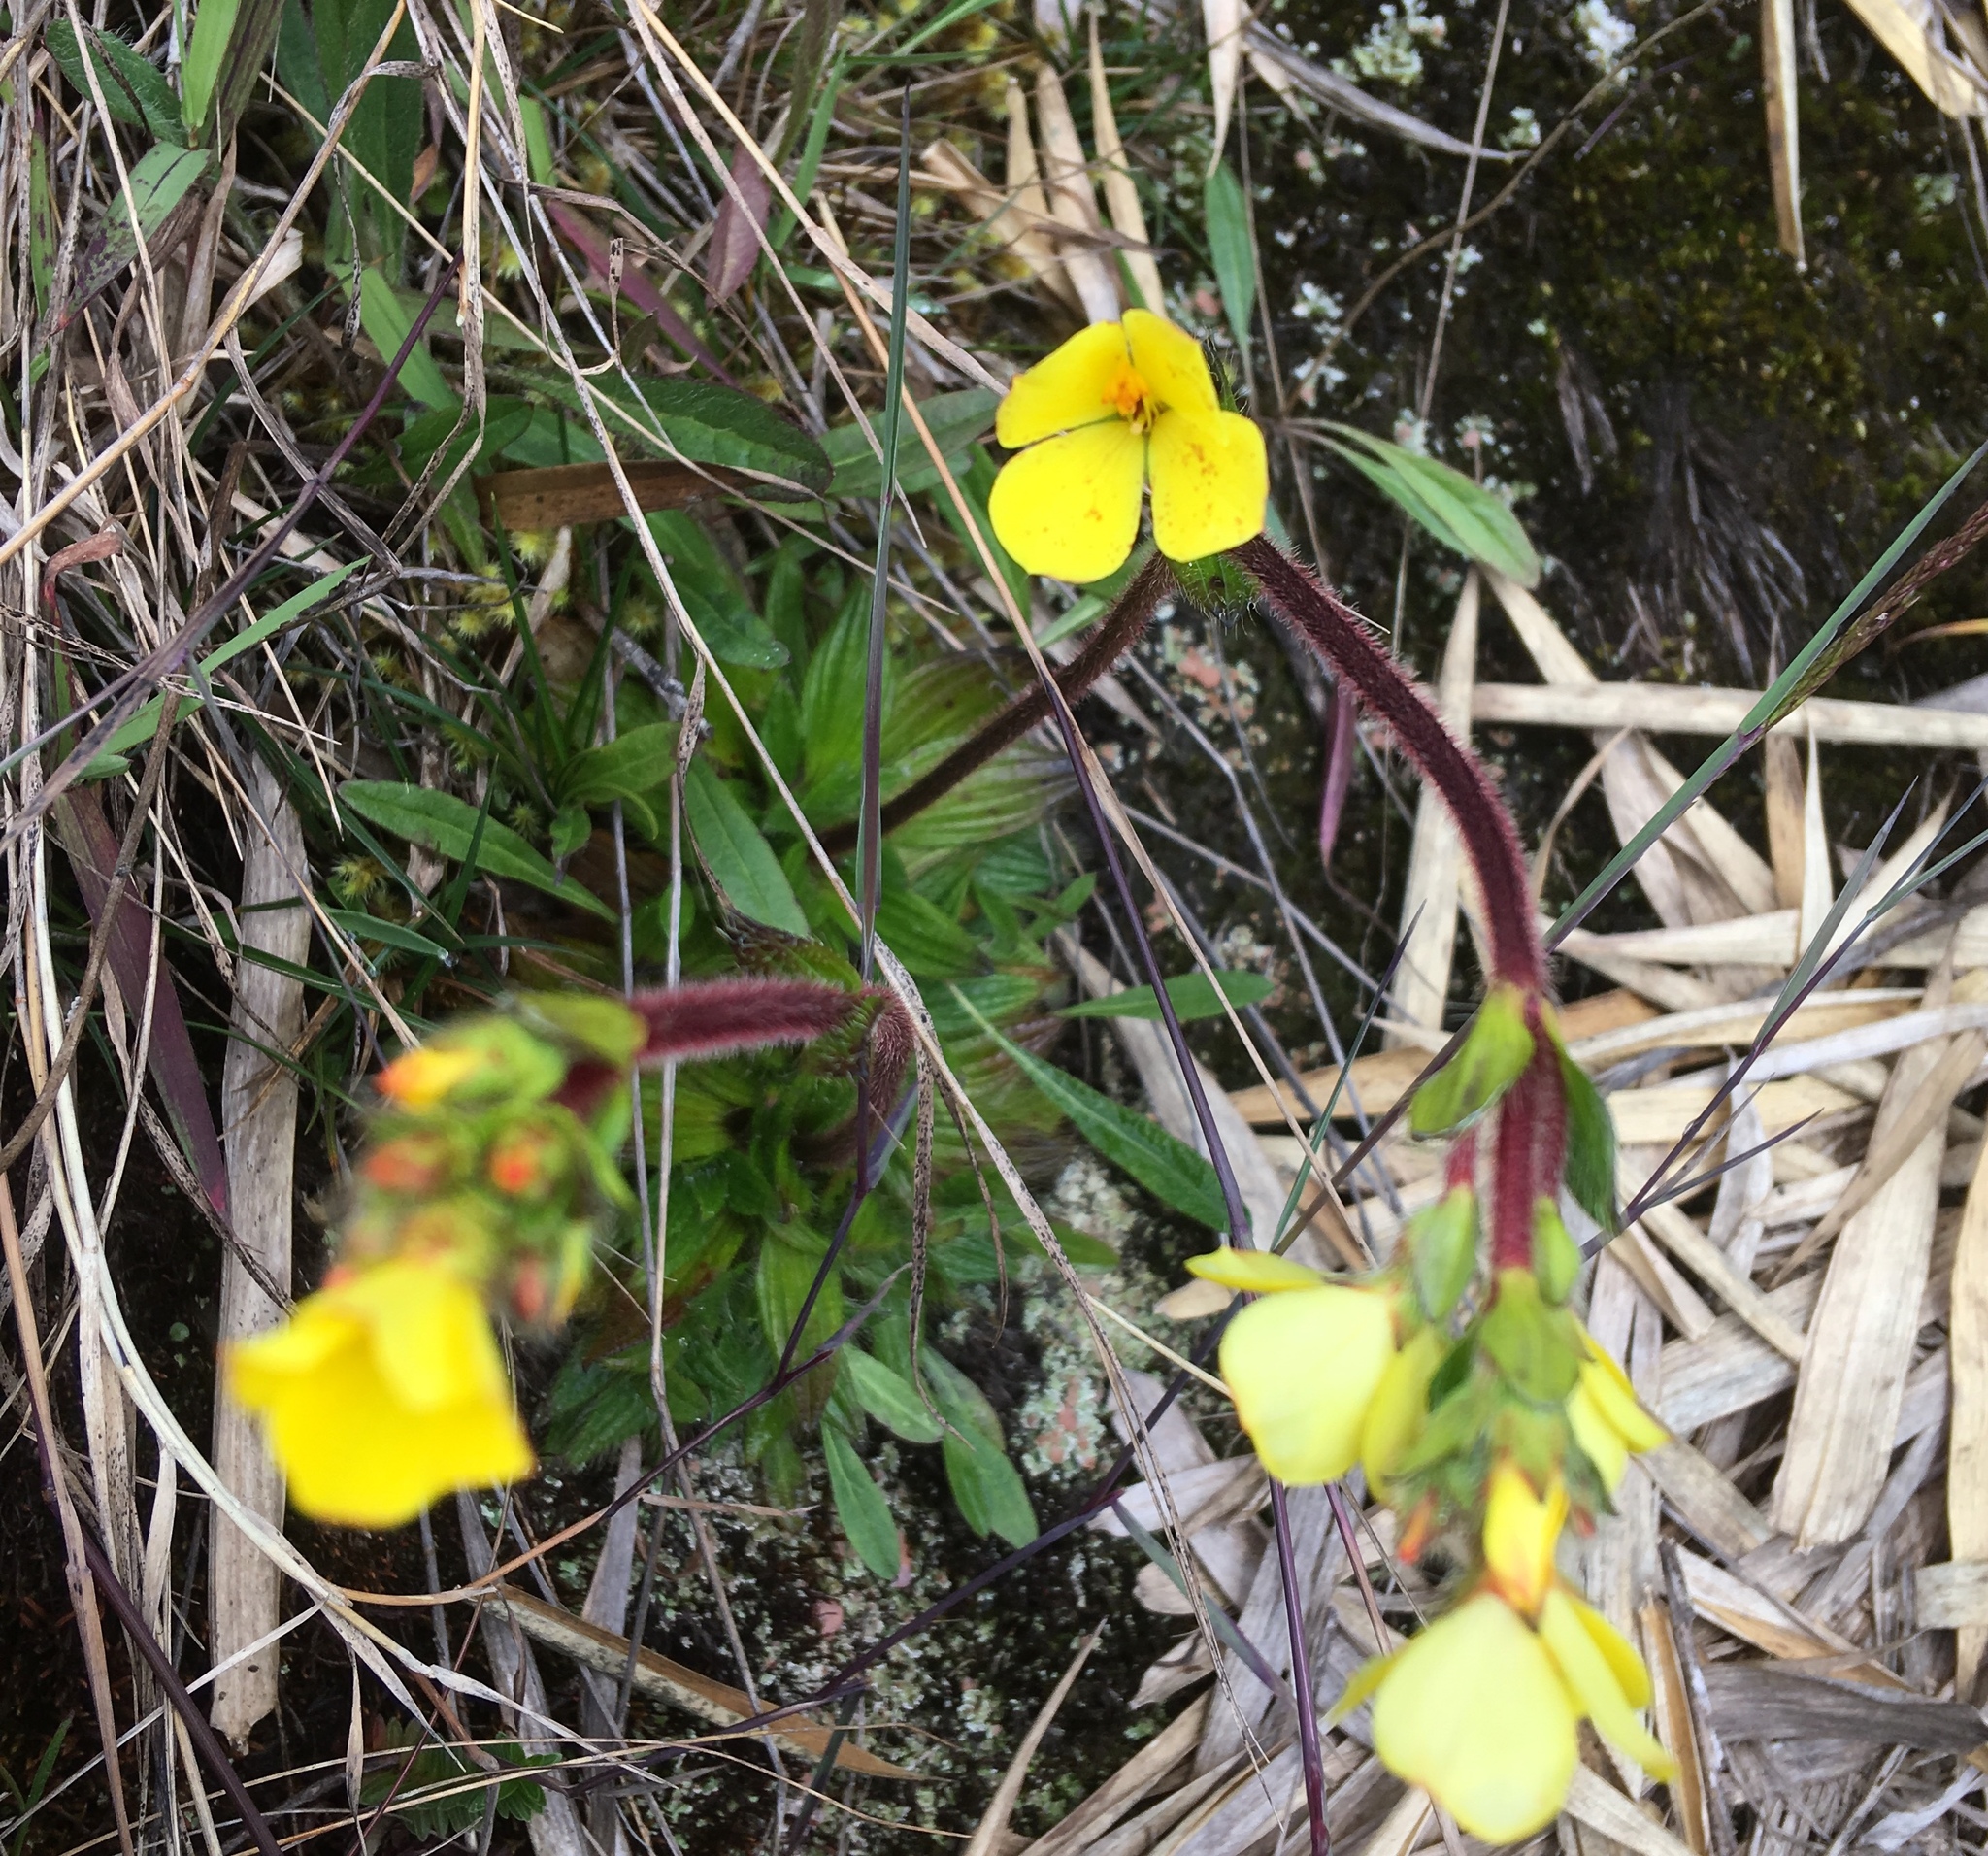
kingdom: Plantae
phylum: Tracheophyta
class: Magnoliopsida
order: Myrtales
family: Melastomataceae
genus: Castratella
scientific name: Castratella piloselloides
